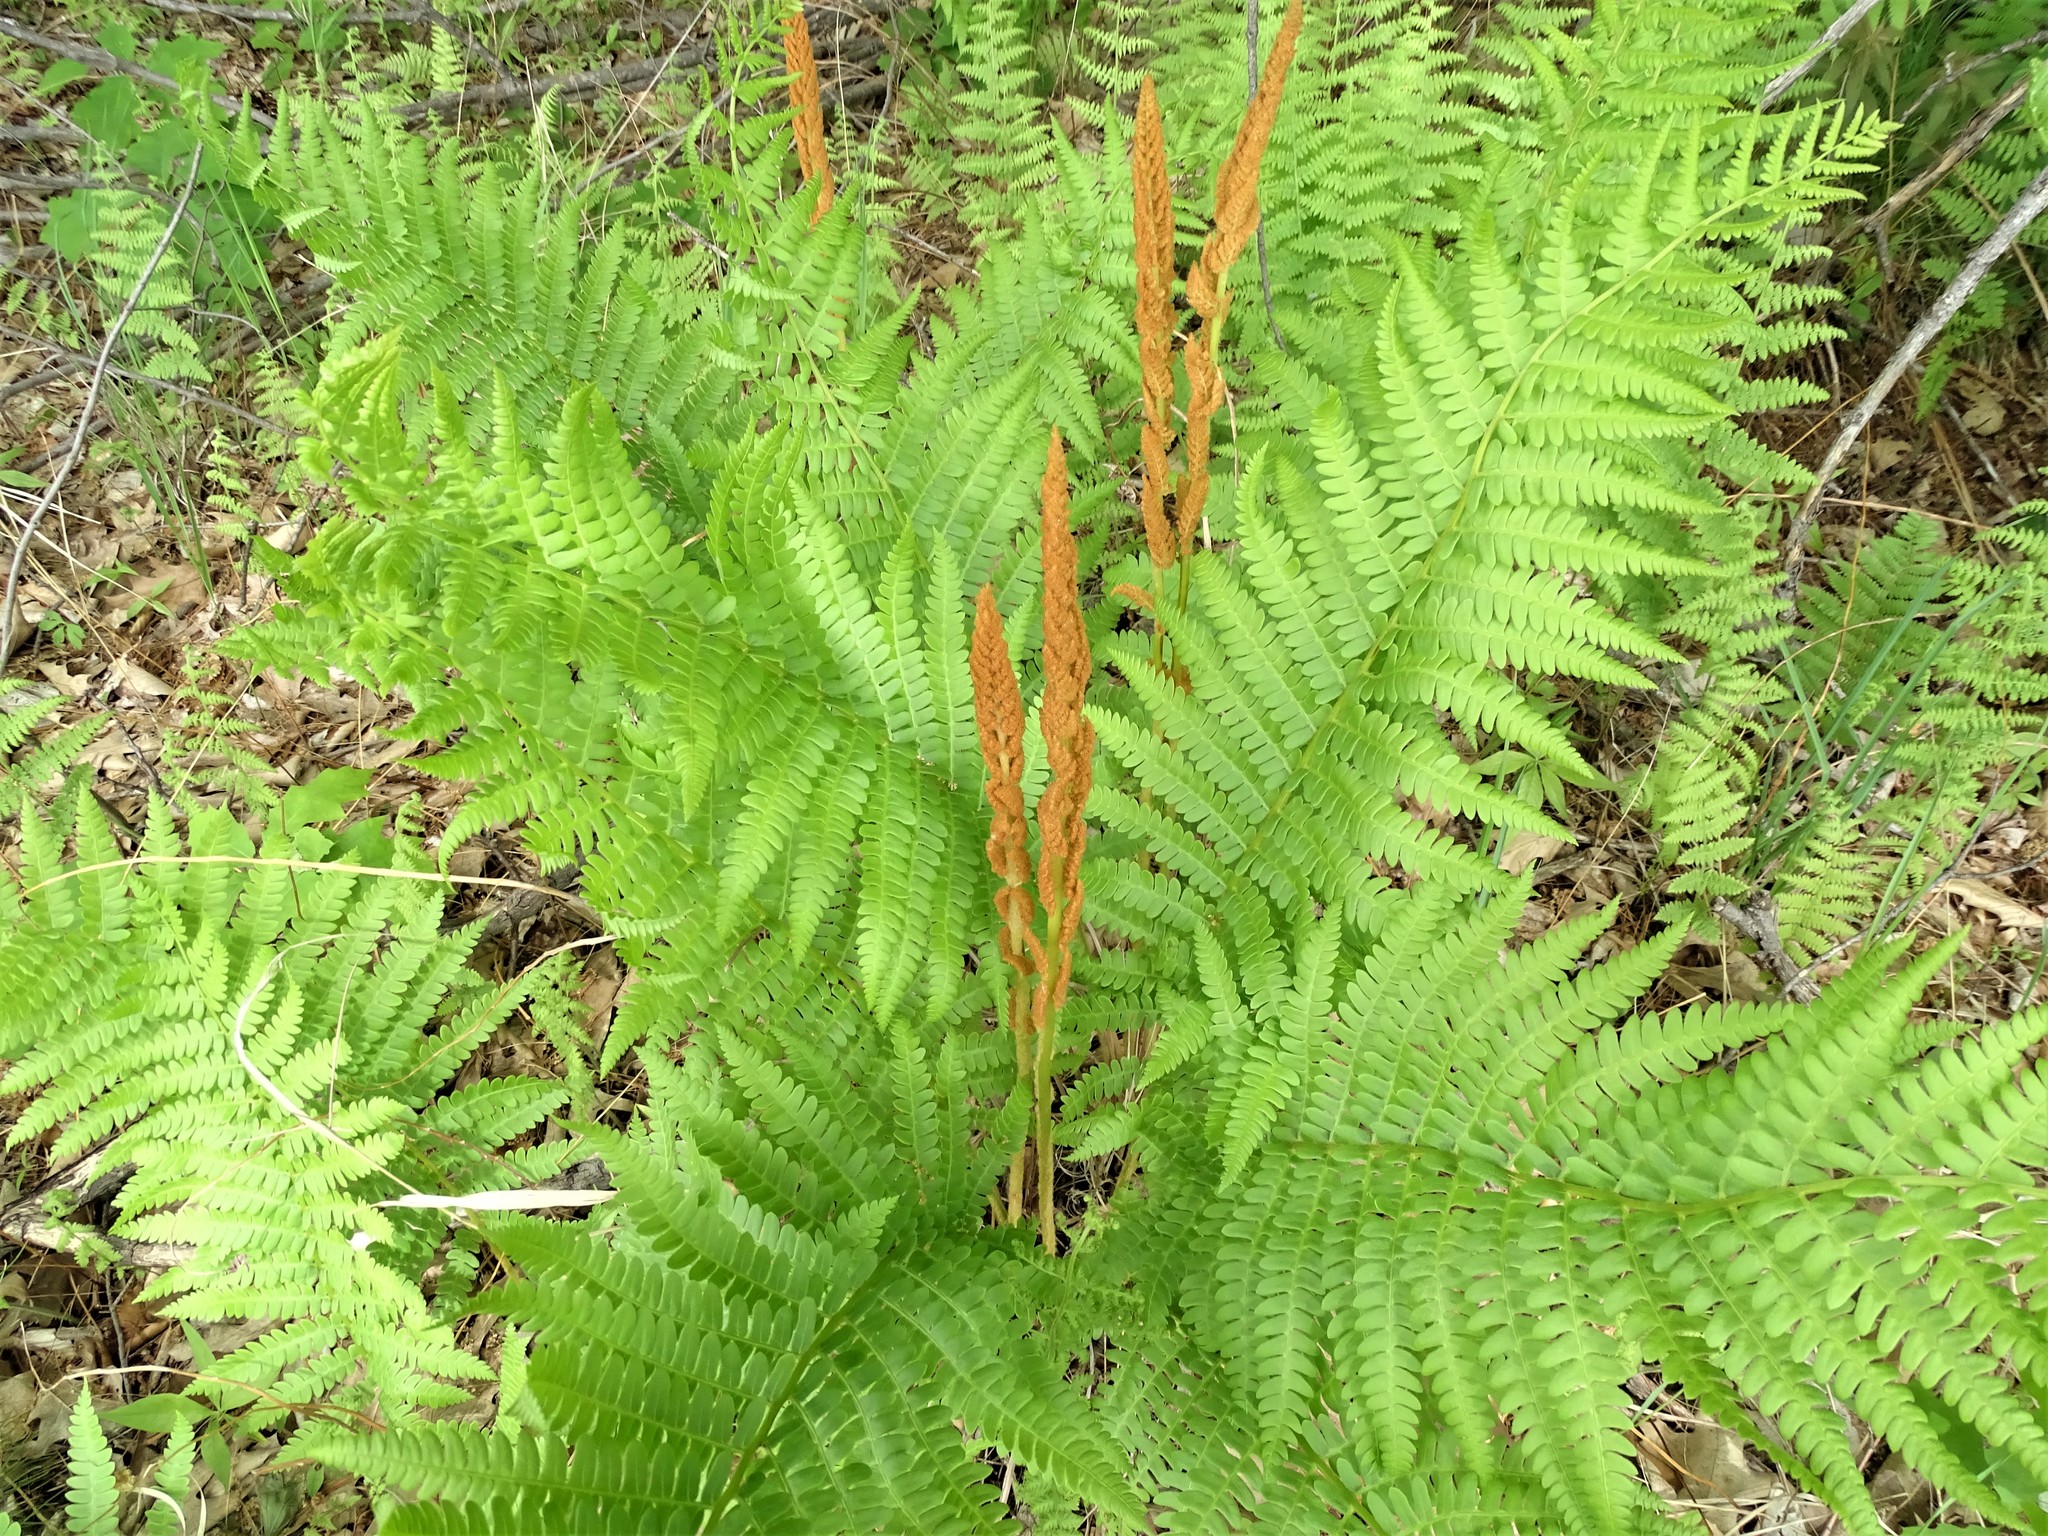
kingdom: Plantae
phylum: Tracheophyta
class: Polypodiopsida
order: Osmundales
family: Osmundaceae
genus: Osmundastrum
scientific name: Osmundastrum cinnamomeum
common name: Cinnamon fern
